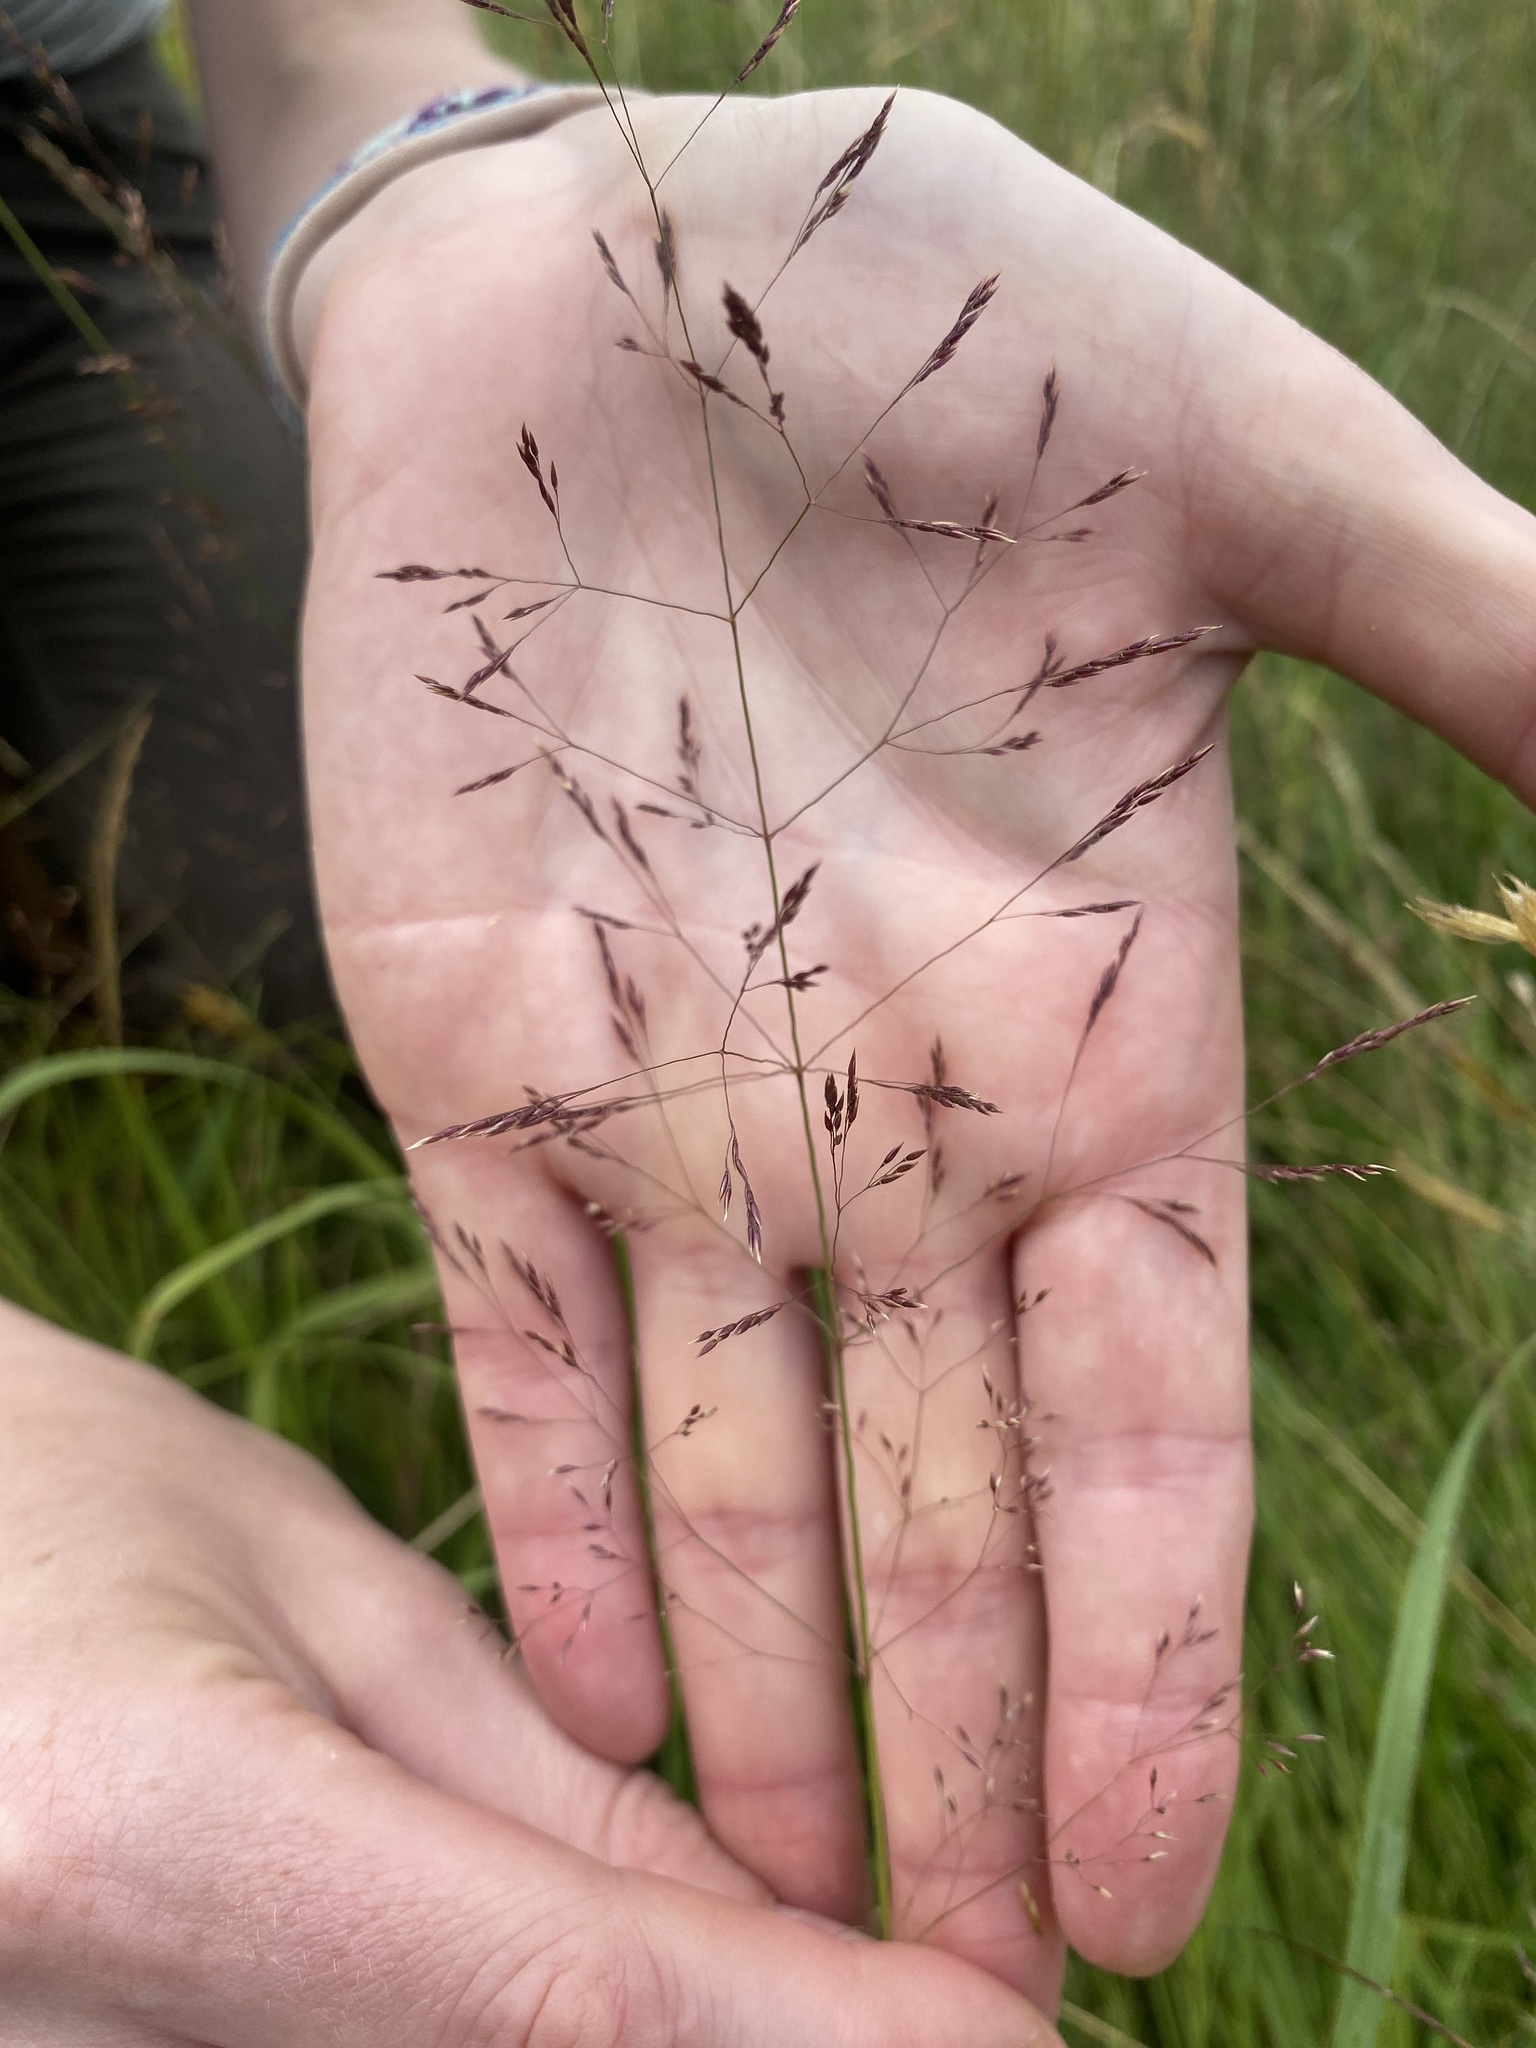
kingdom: Plantae
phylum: Tracheophyta
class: Liliopsida
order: Poales
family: Poaceae
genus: Agrostis
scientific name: Agrostis capillaris
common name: Colonial bentgrass
